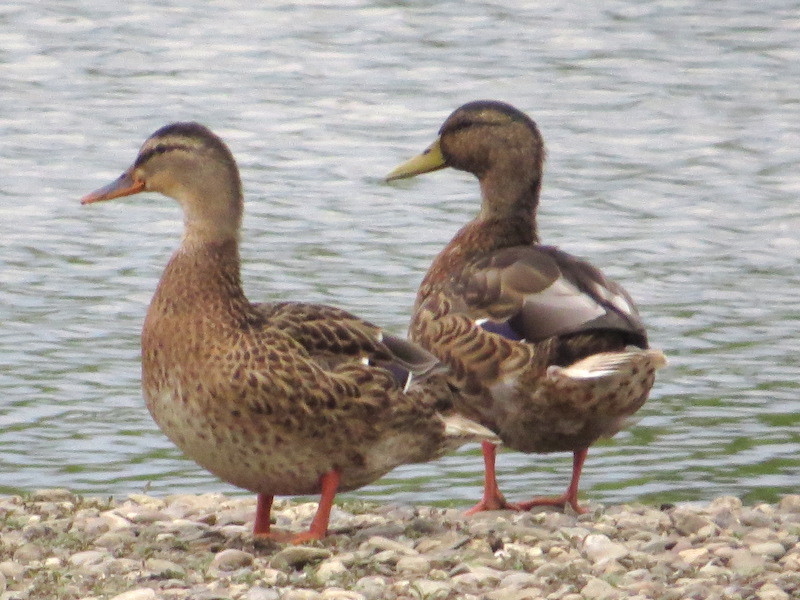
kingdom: Animalia
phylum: Chordata
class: Aves
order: Anseriformes
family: Anatidae
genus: Anas
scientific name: Anas platyrhynchos
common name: Mallard
